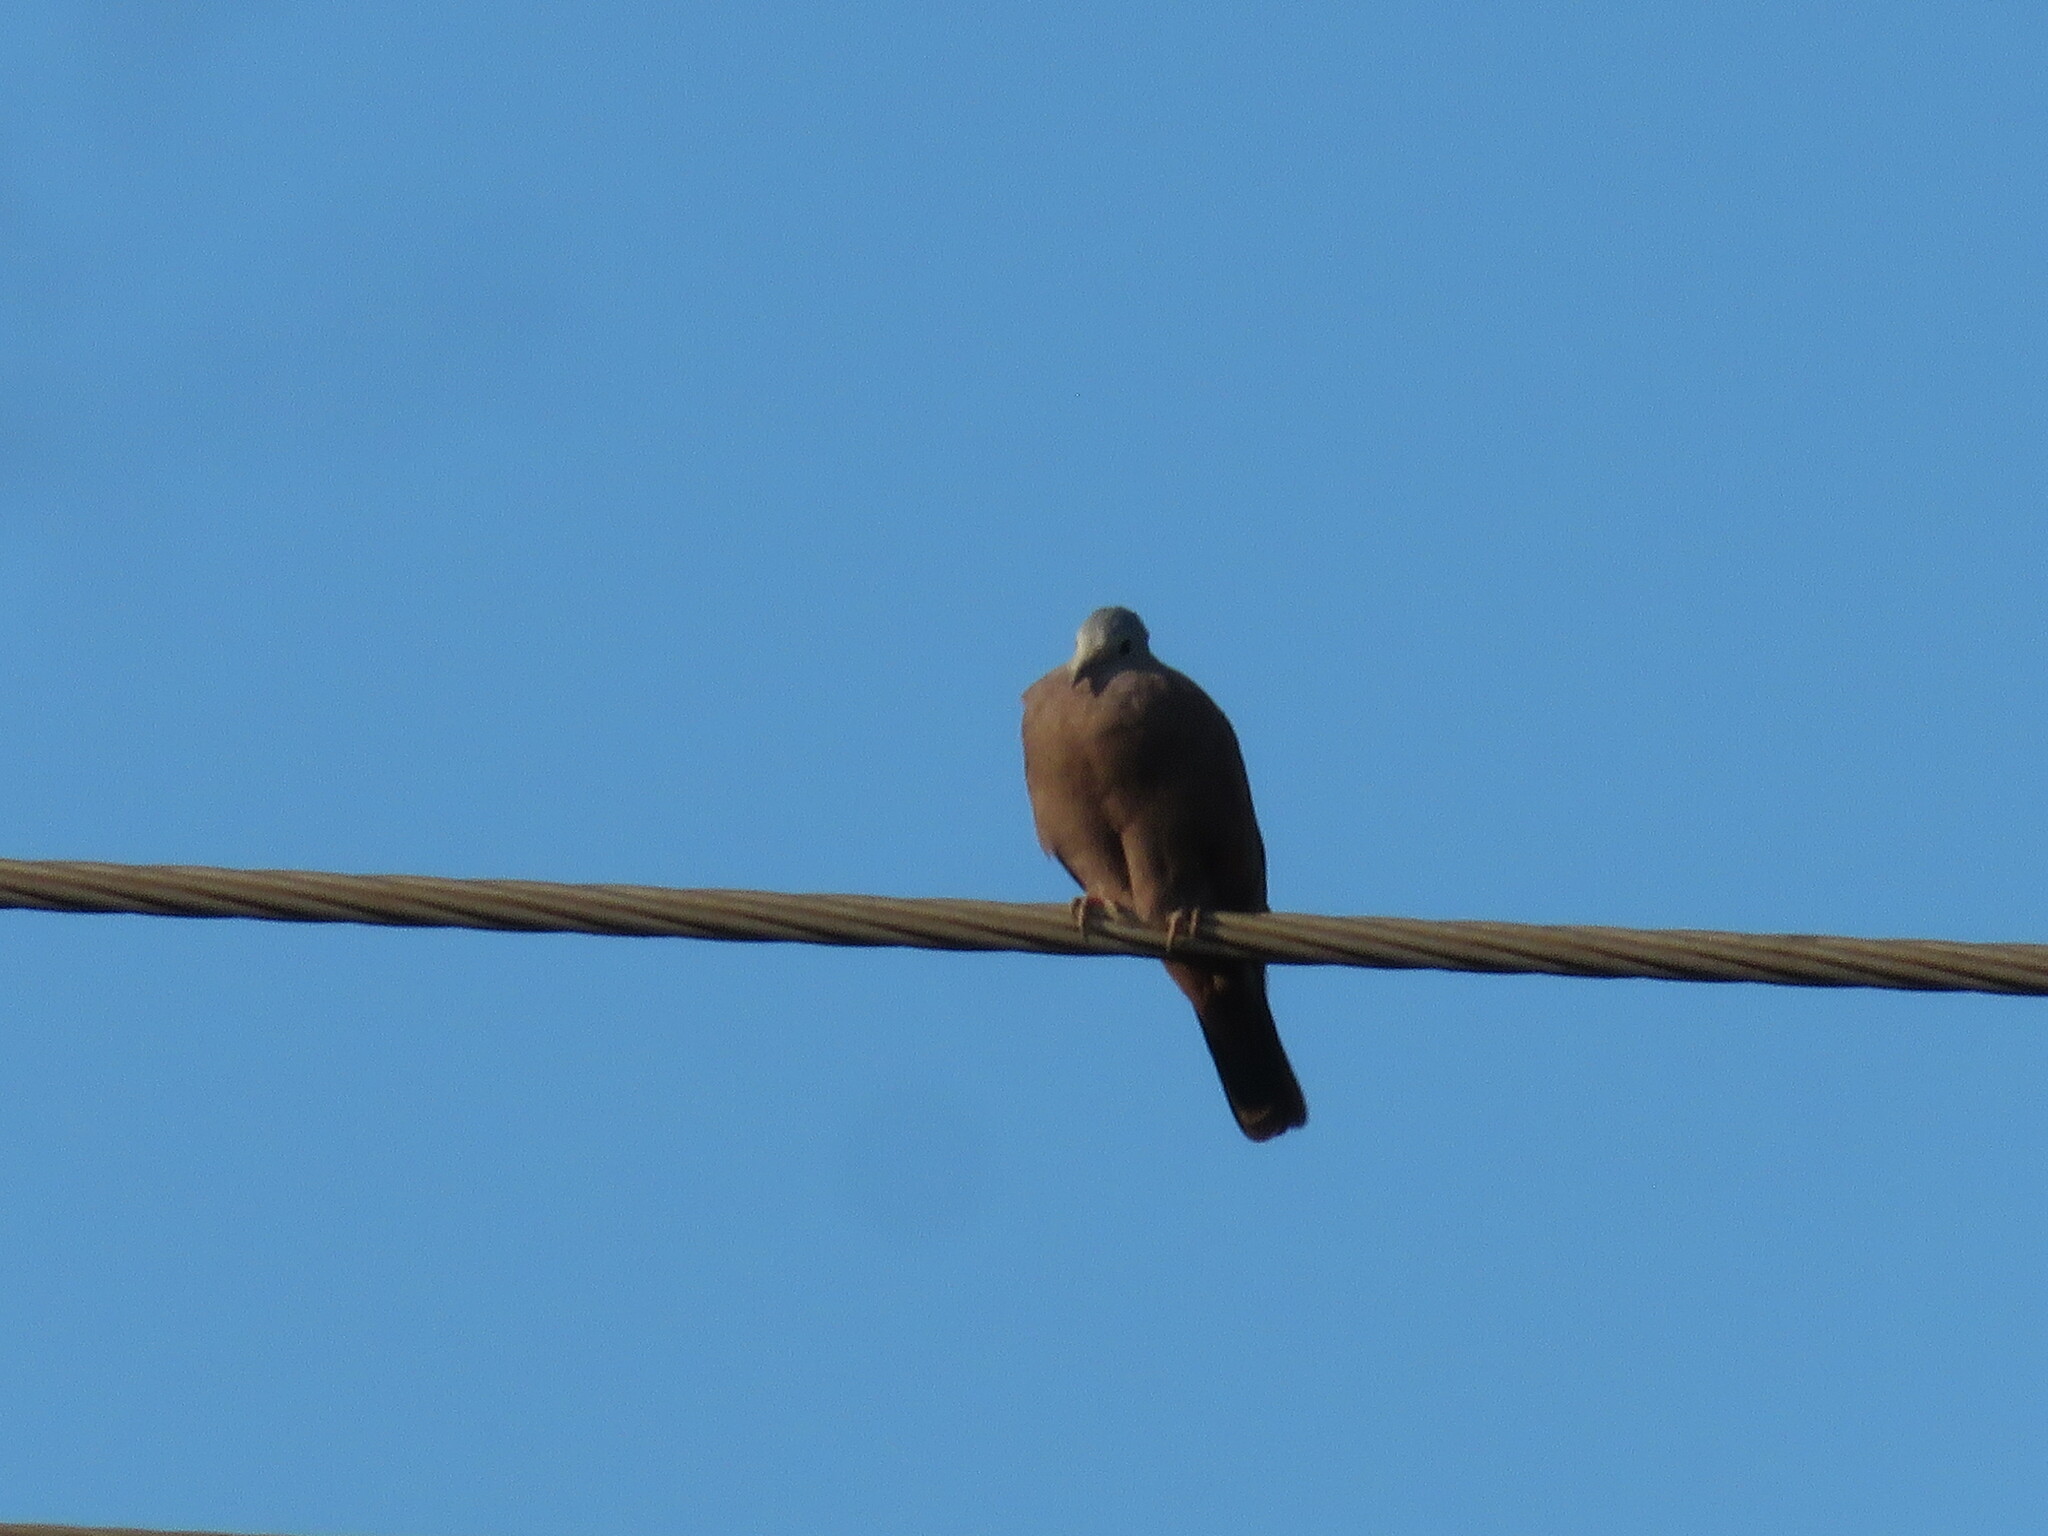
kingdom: Animalia
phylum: Chordata
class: Aves
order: Columbiformes
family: Columbidae
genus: Columbina
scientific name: Columbina talpacoti
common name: Ruddy ground dove
